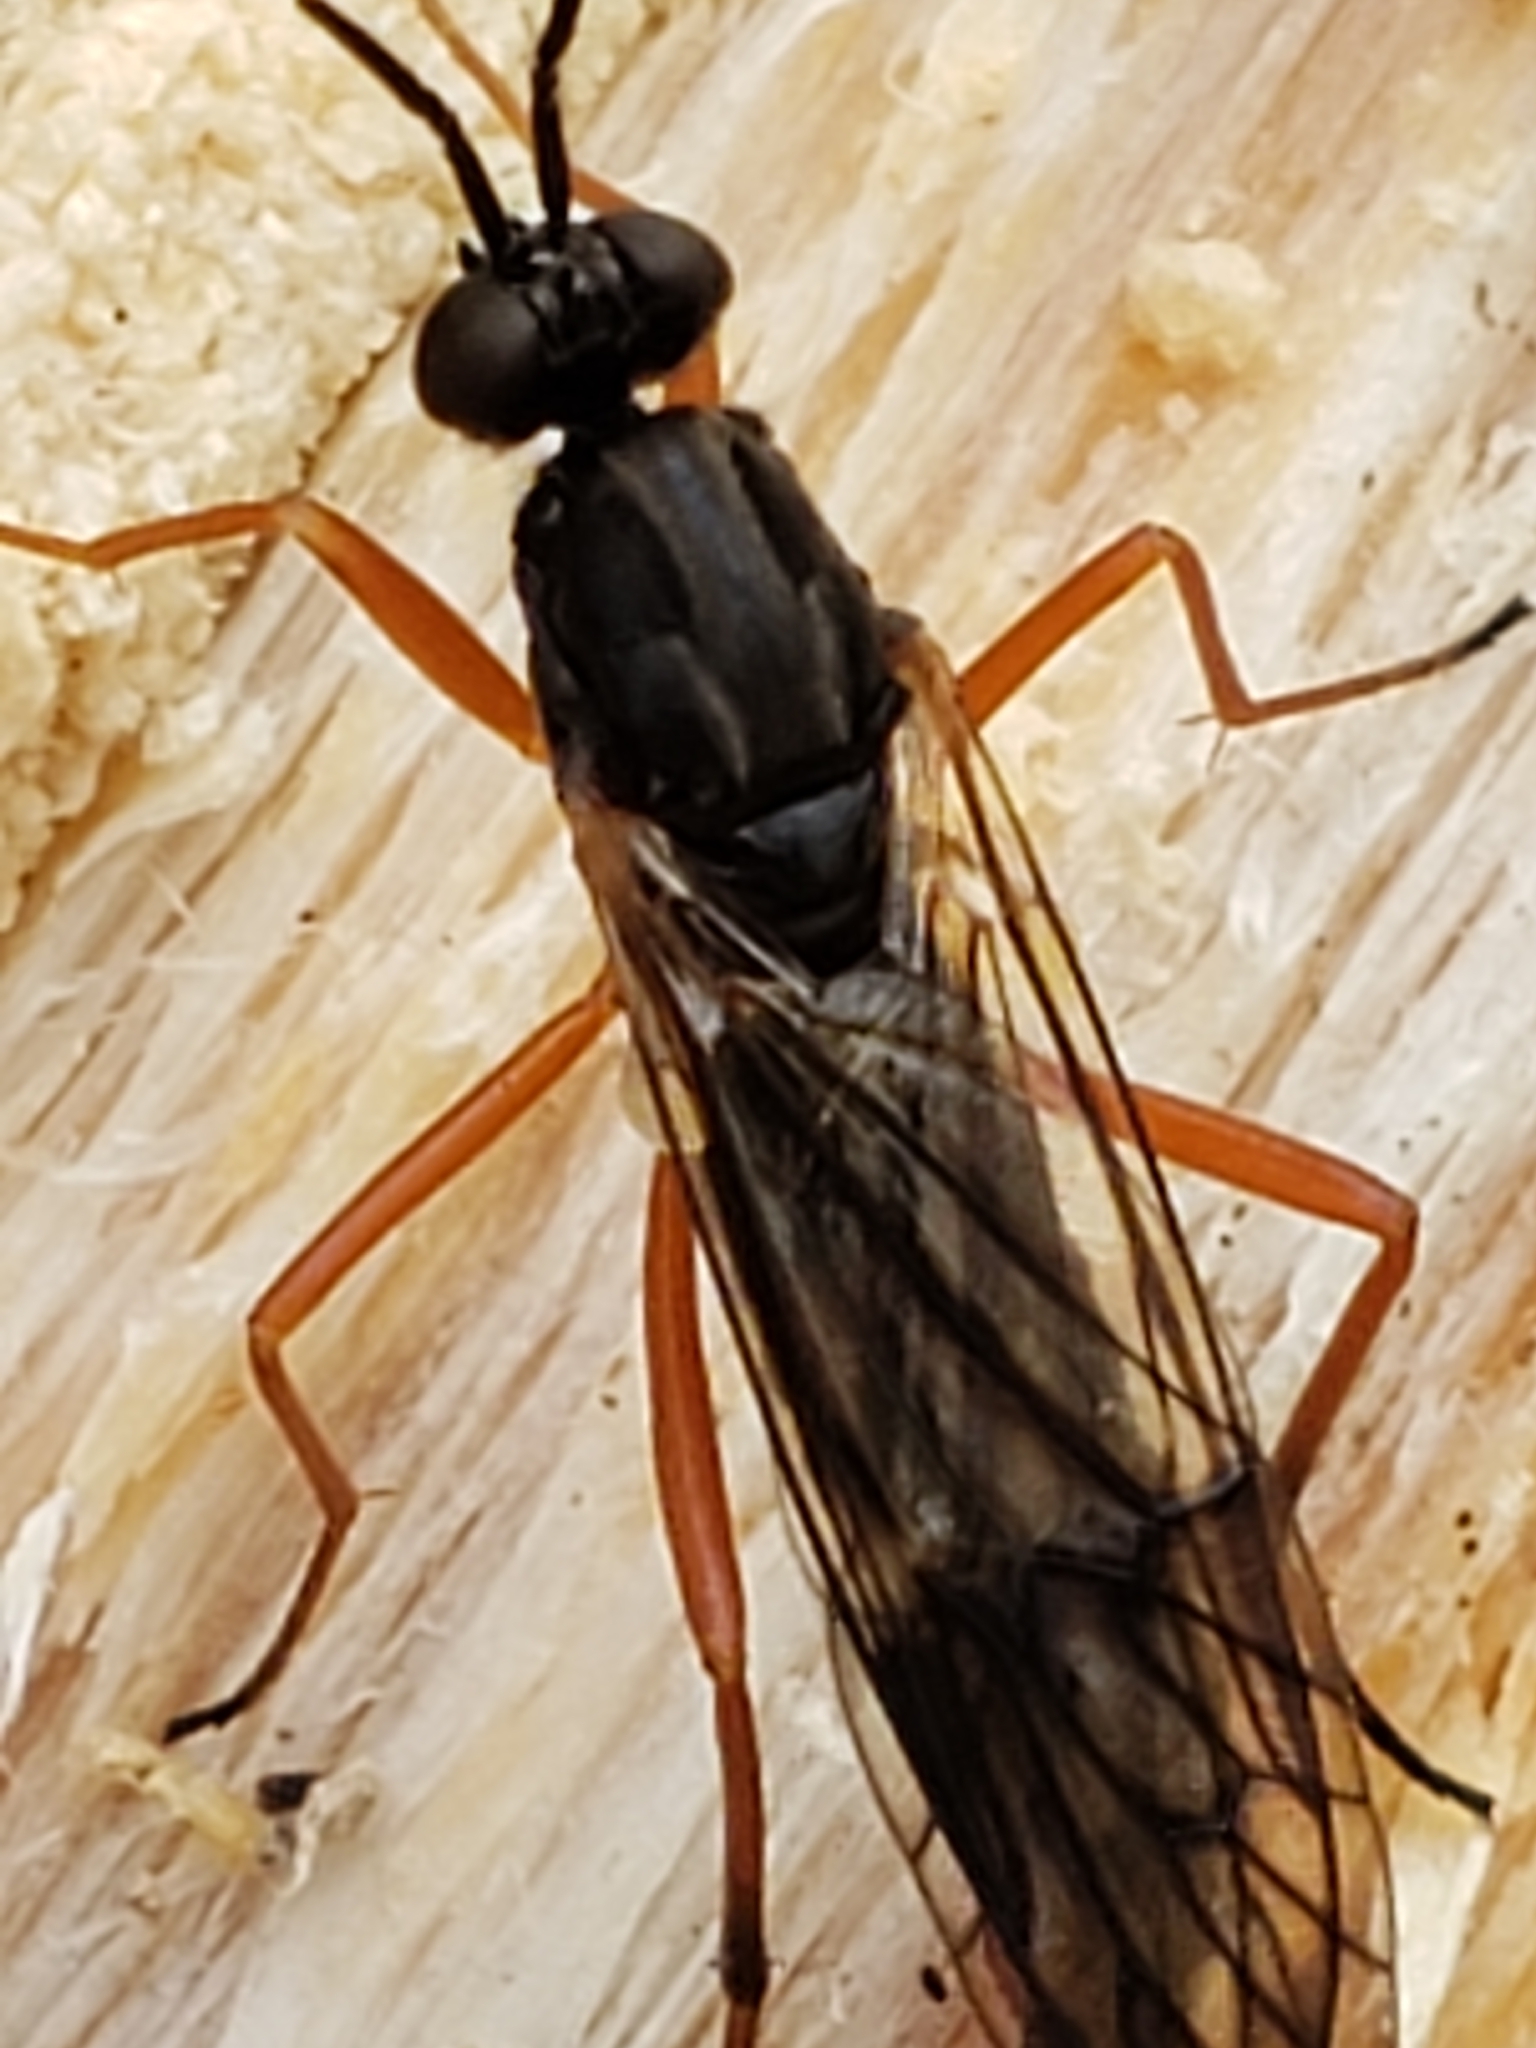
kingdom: Animalia
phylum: Arthropoda
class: Insecta
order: Diptera
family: Xylophagidae
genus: Xylophagus
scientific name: Xylophagus reflectens
